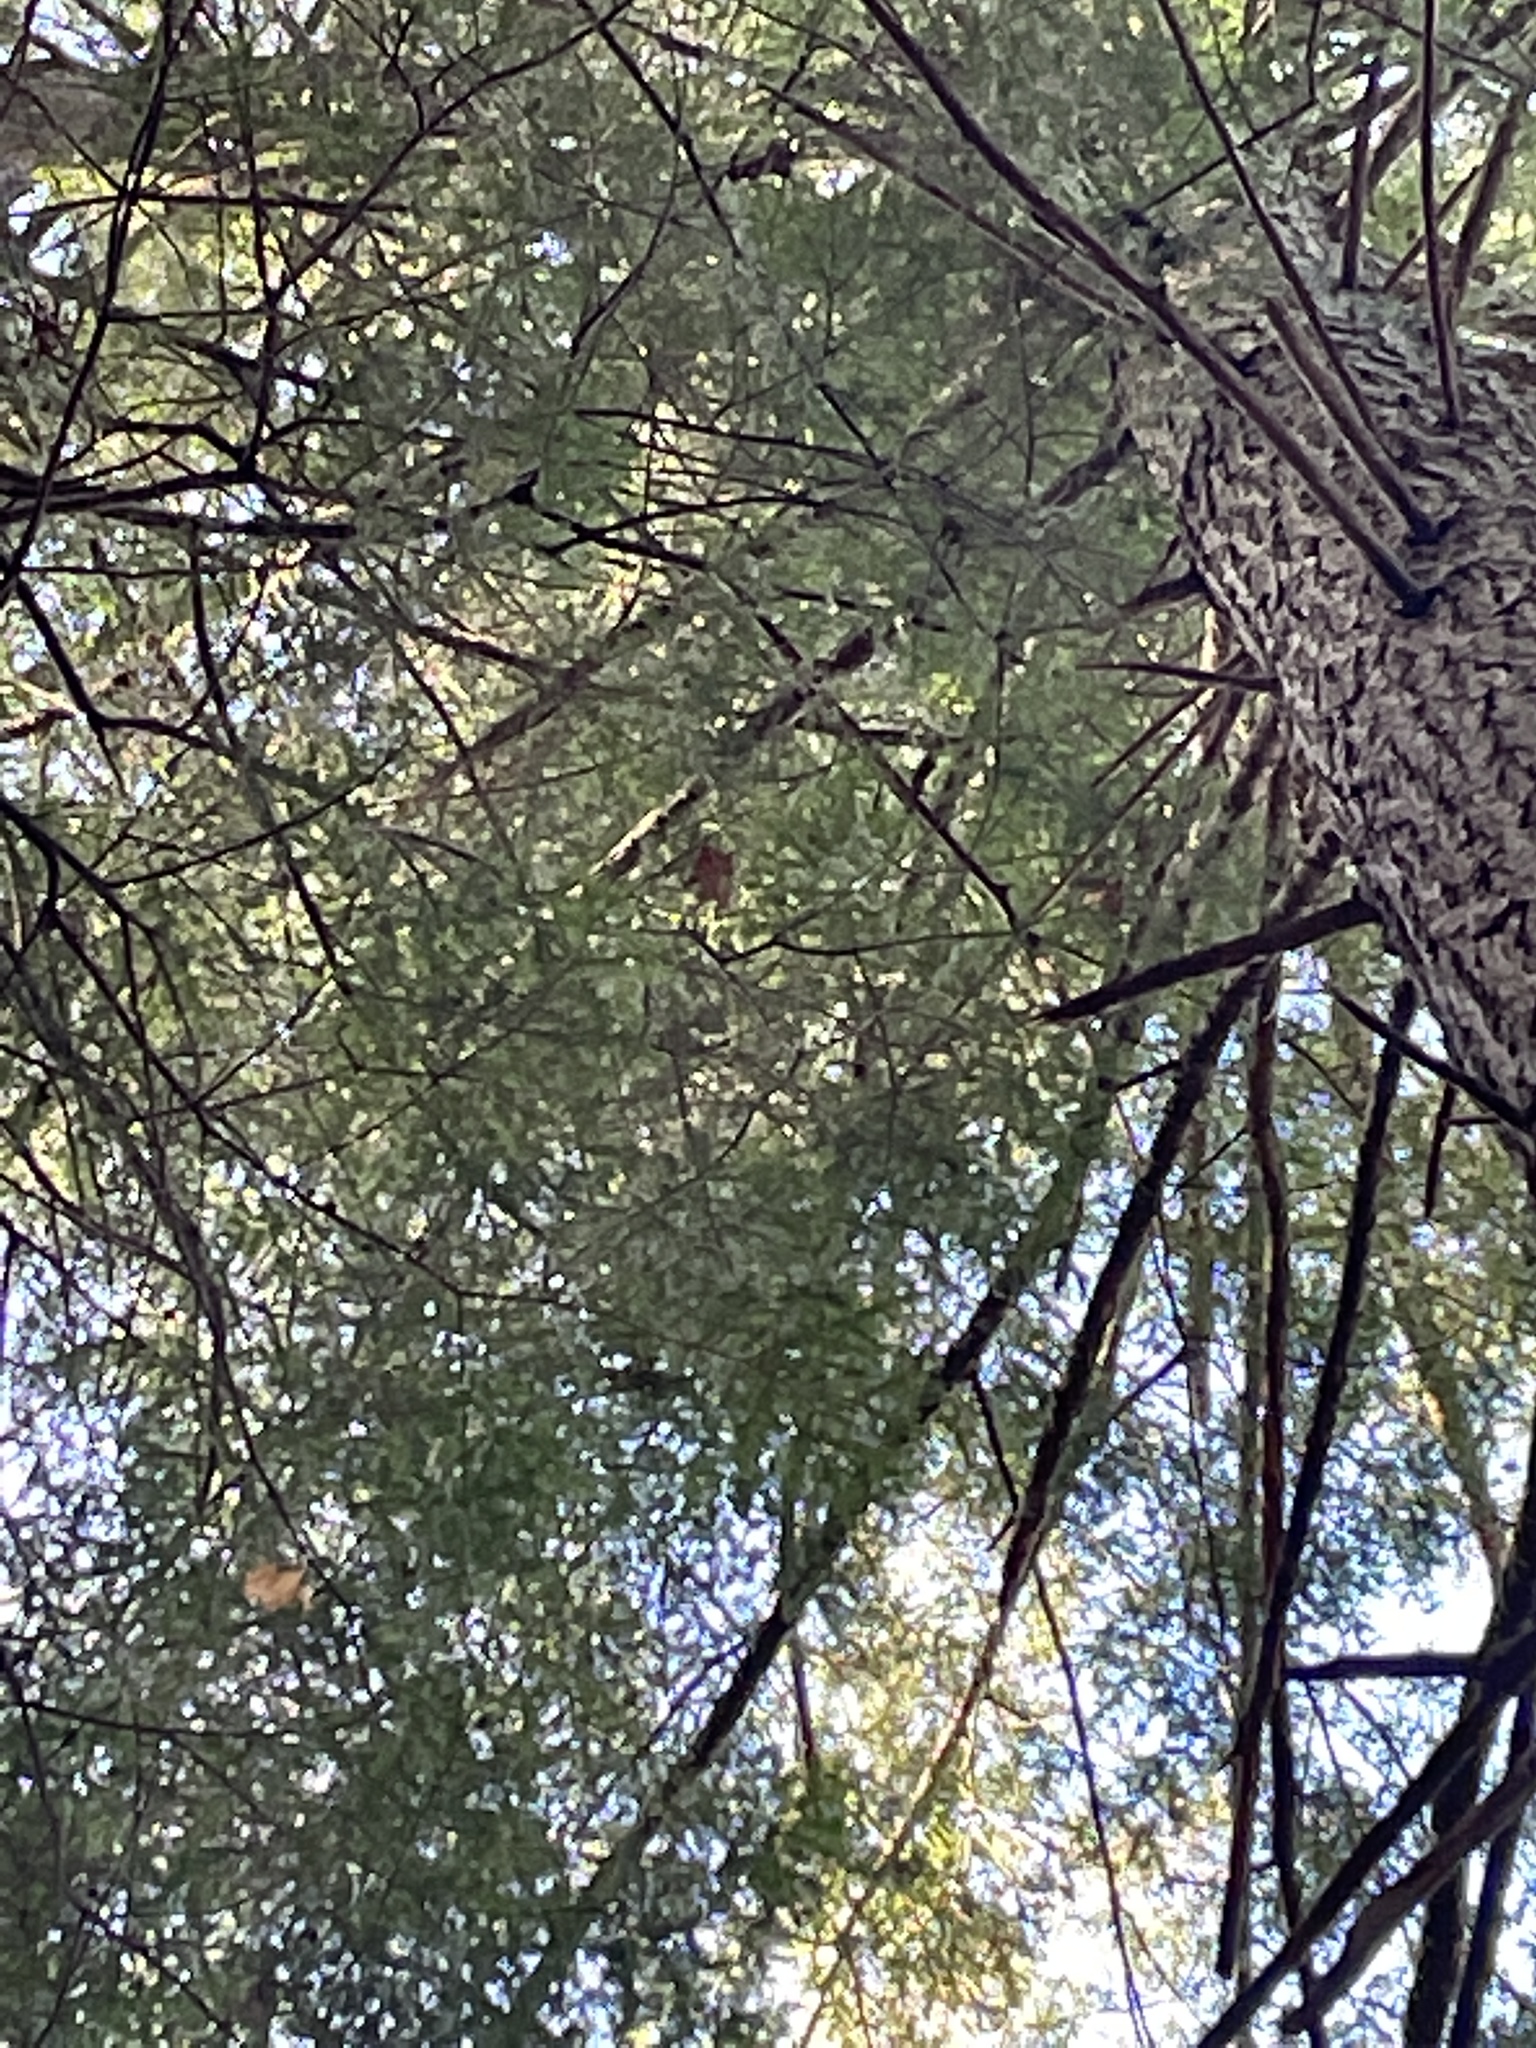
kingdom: Plantae
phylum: Tracheophyta
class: Pinopsida
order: Pinales
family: Pinaceae
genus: Tsuga
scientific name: Tsuga canadensis
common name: Eastern hemlock
